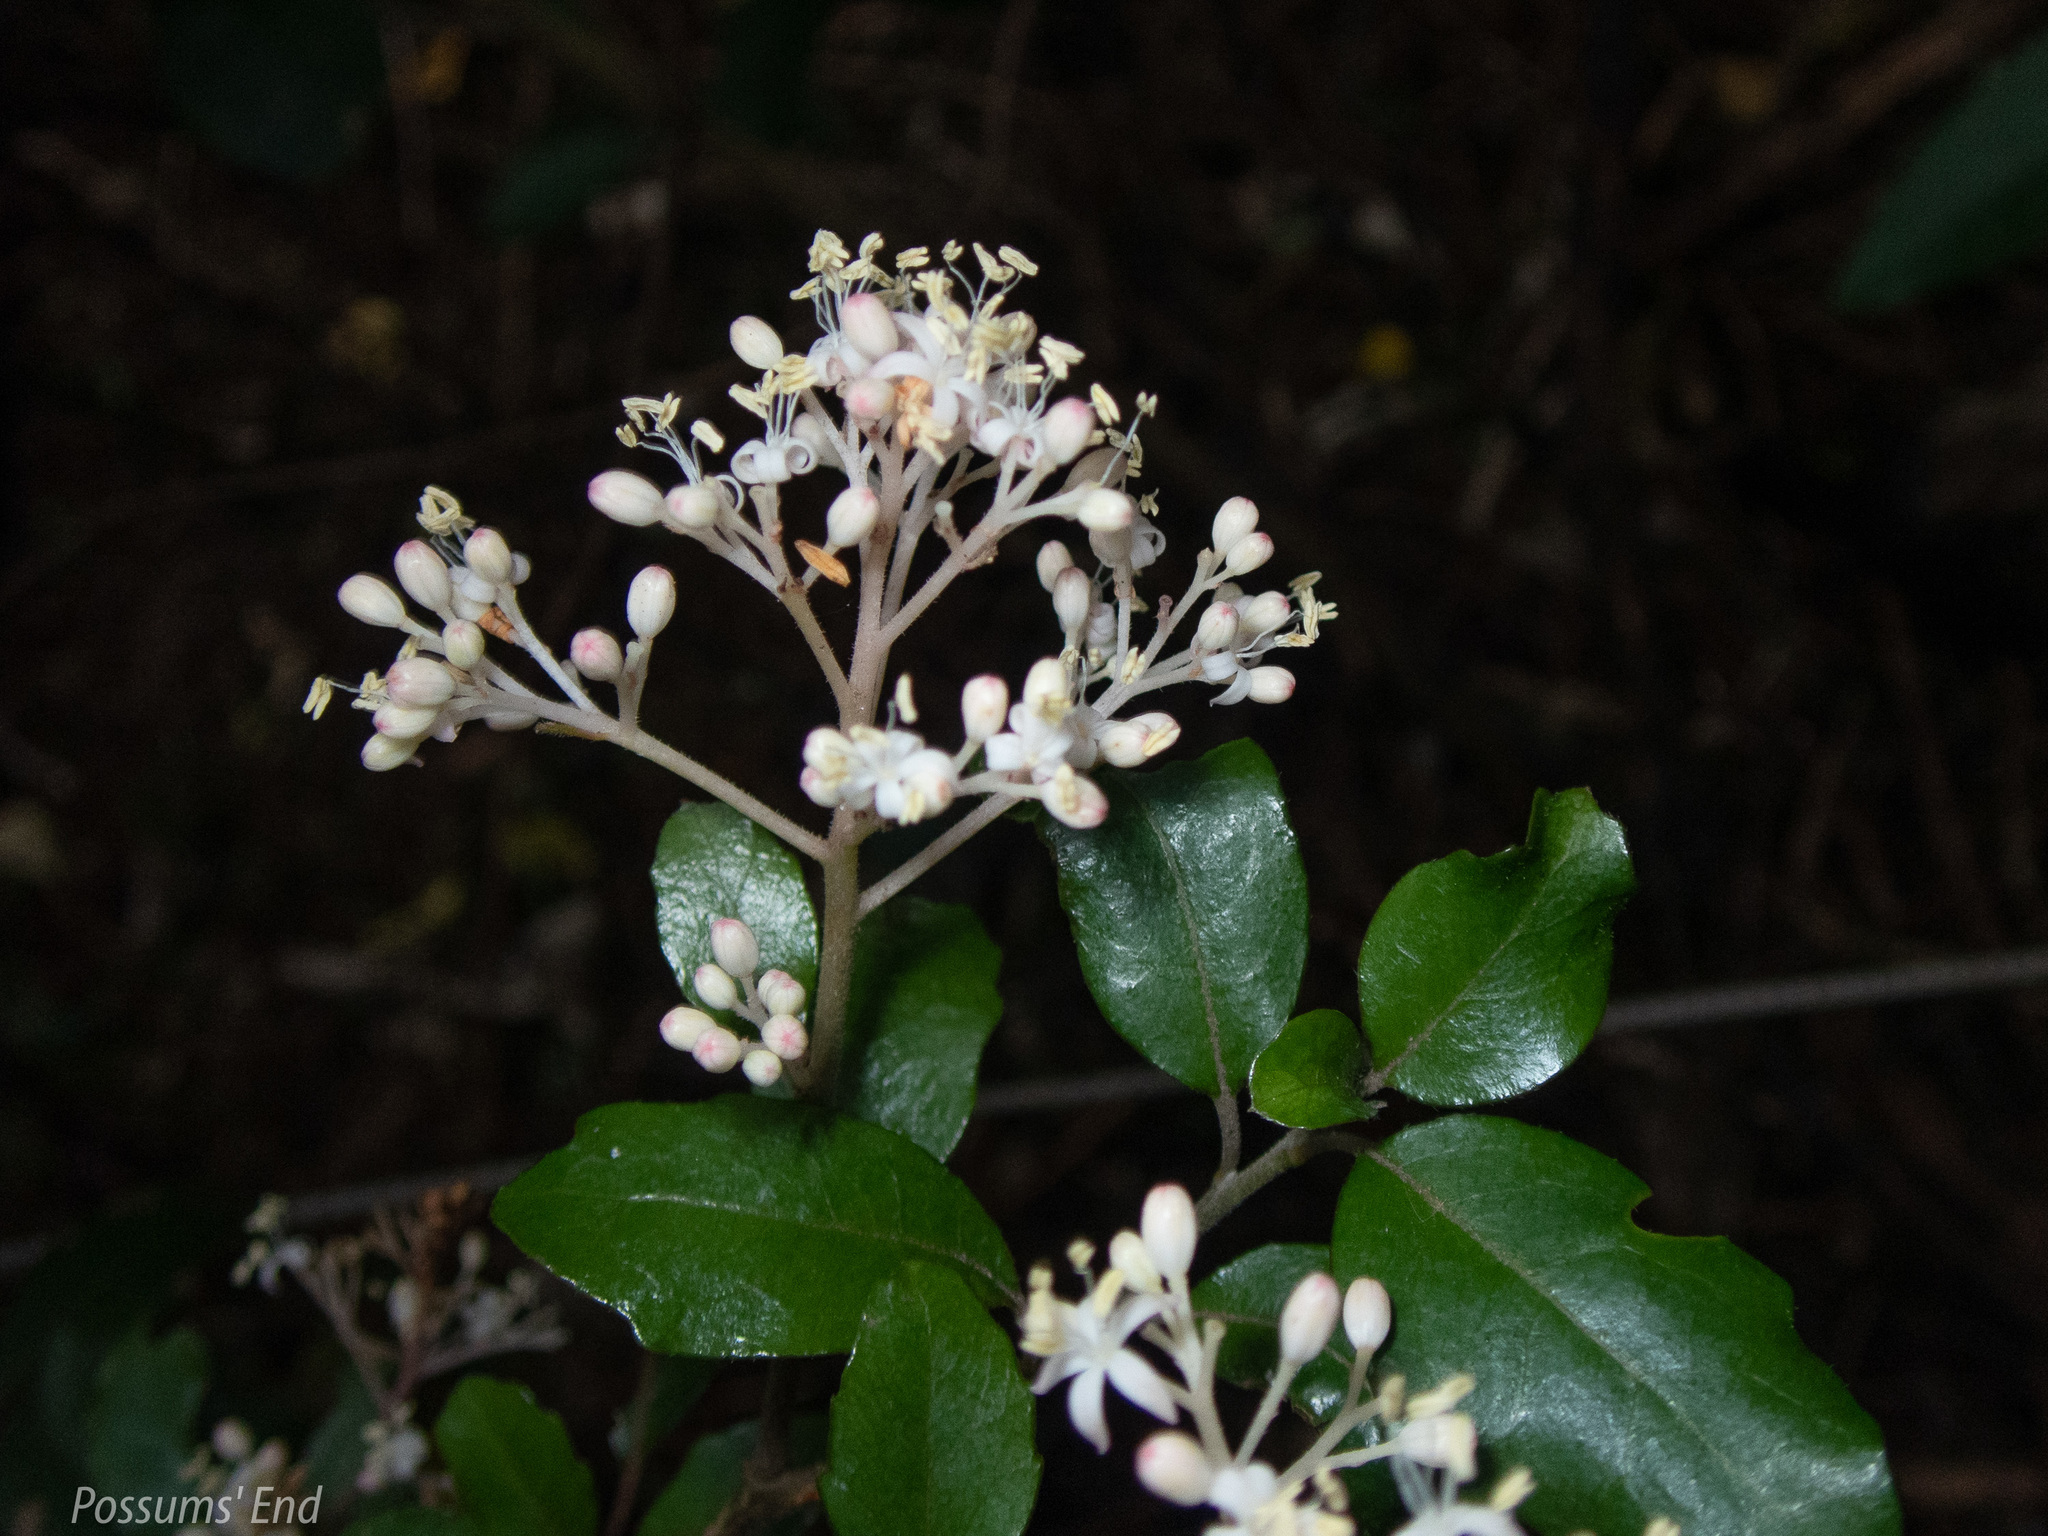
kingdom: Plantae
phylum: Tracheophyta
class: Magnoliopsida
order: Apiales
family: Pennantiaceae
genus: Pennantia
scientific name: Pennantia corymbosa
